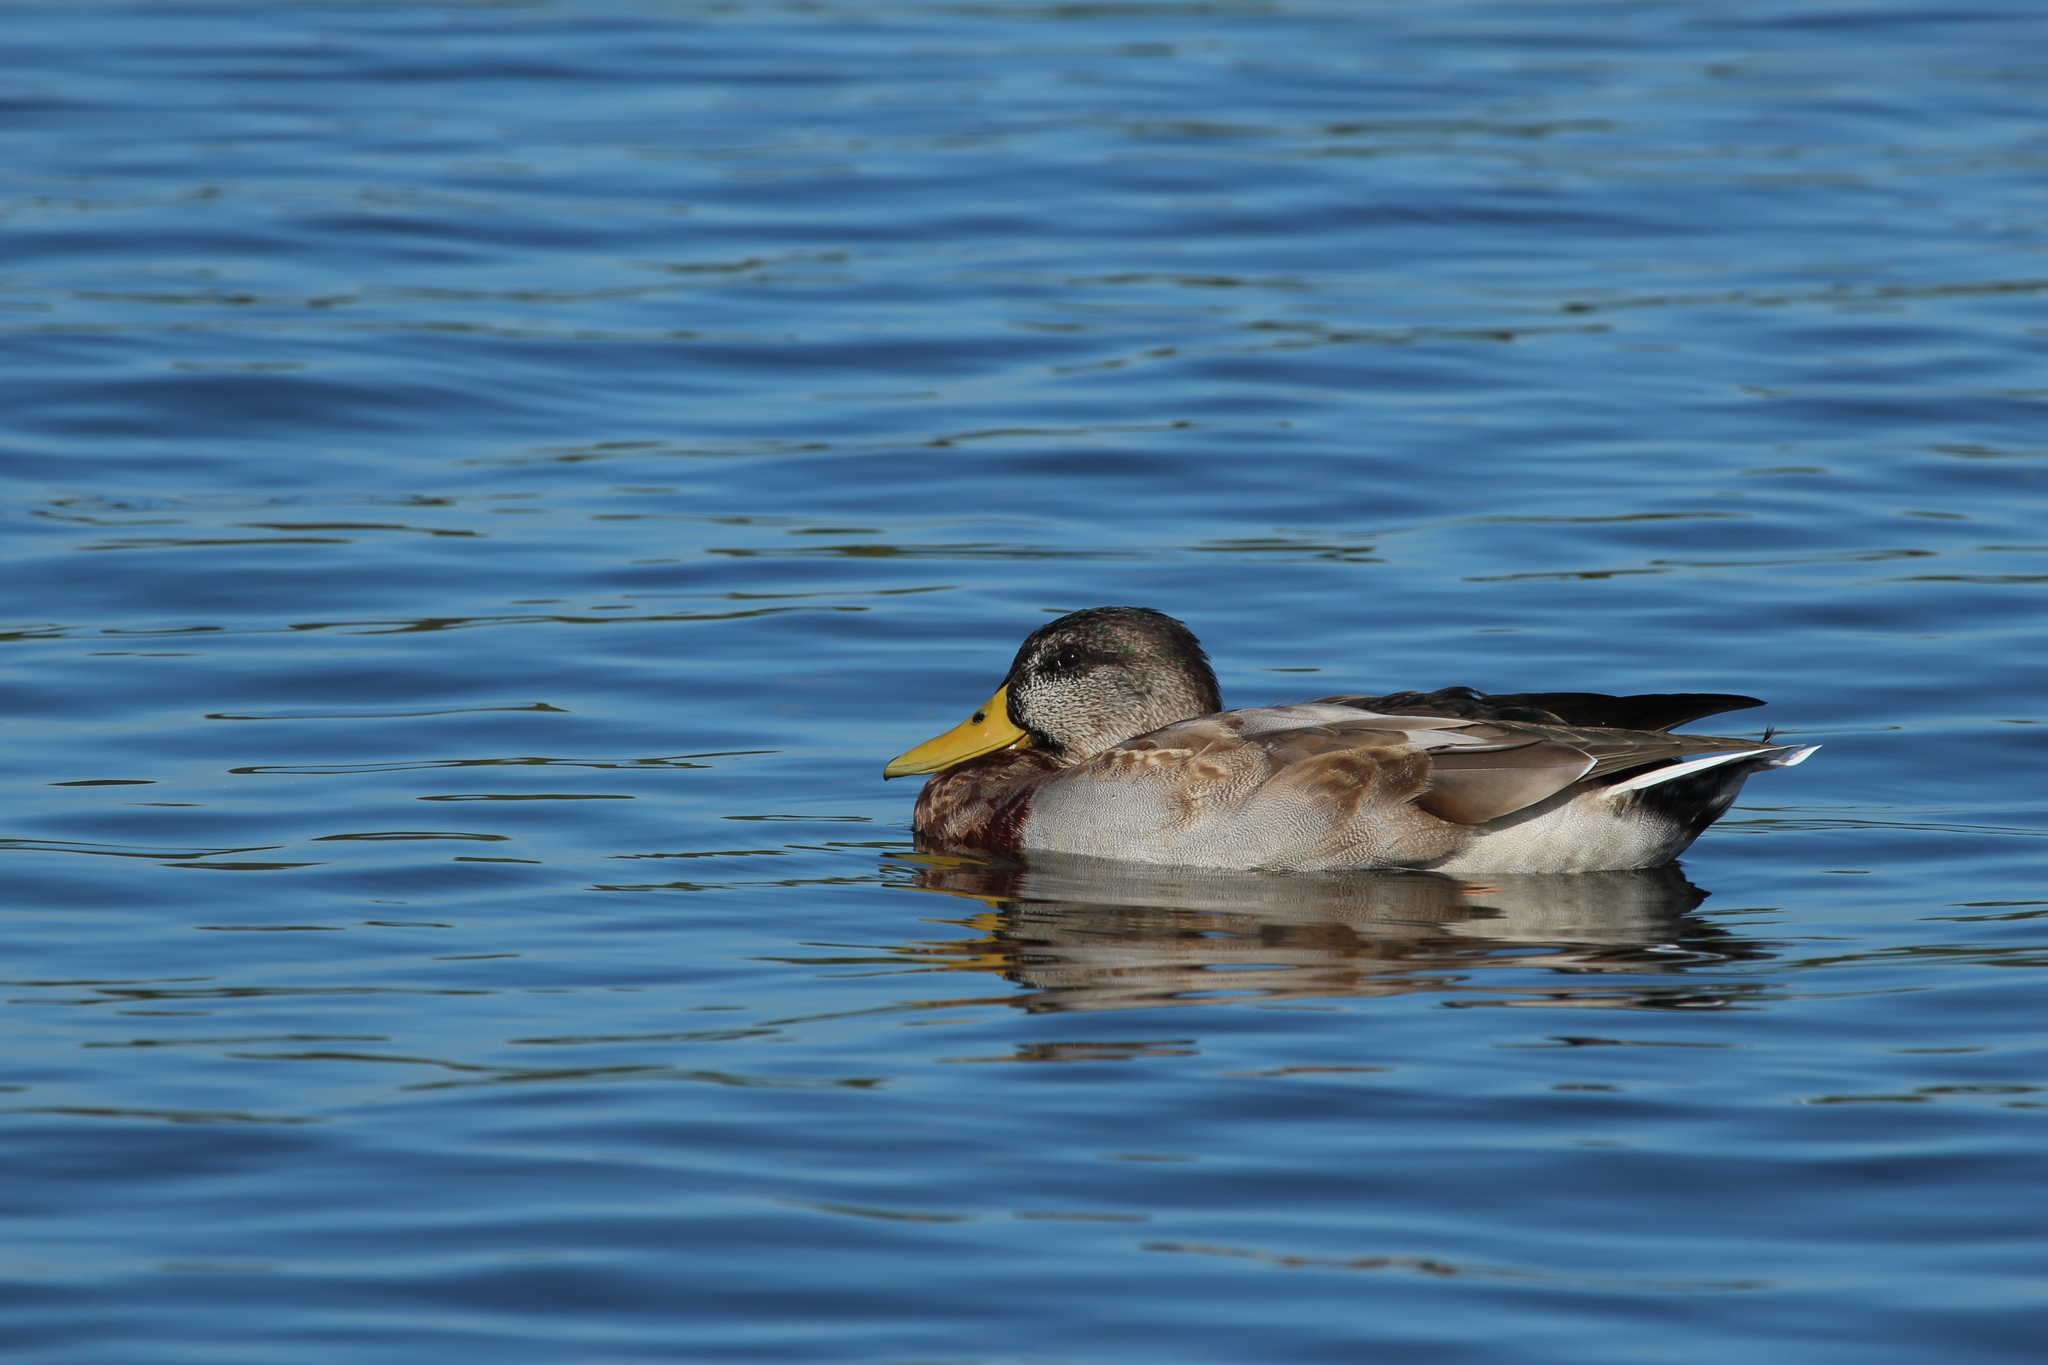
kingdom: Animalia
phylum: Chordata
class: Aves
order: Anseriformes
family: Anatidae
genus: Anas
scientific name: Anas platyrhynchos
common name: Mallard
